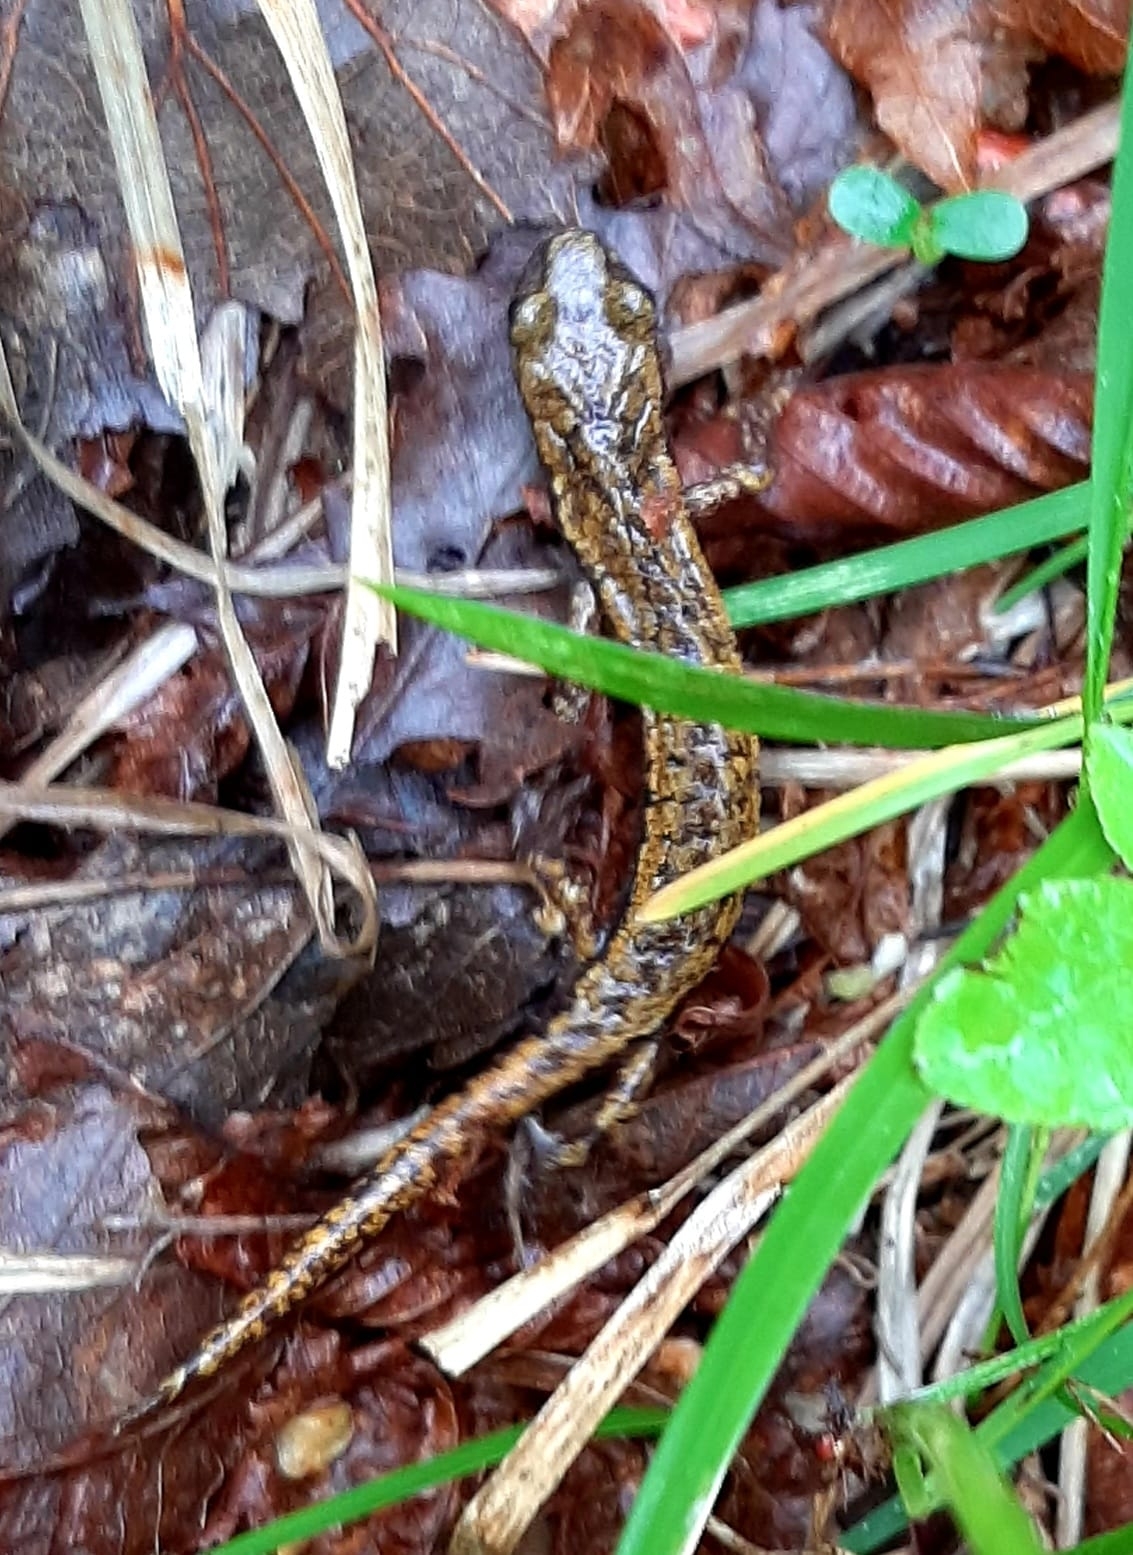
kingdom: Animalia
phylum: Chordata
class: Amphibia
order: Caudata
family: Plethodontidae
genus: Speleomantes
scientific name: Speleomantes strinatii
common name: French cave salamander
